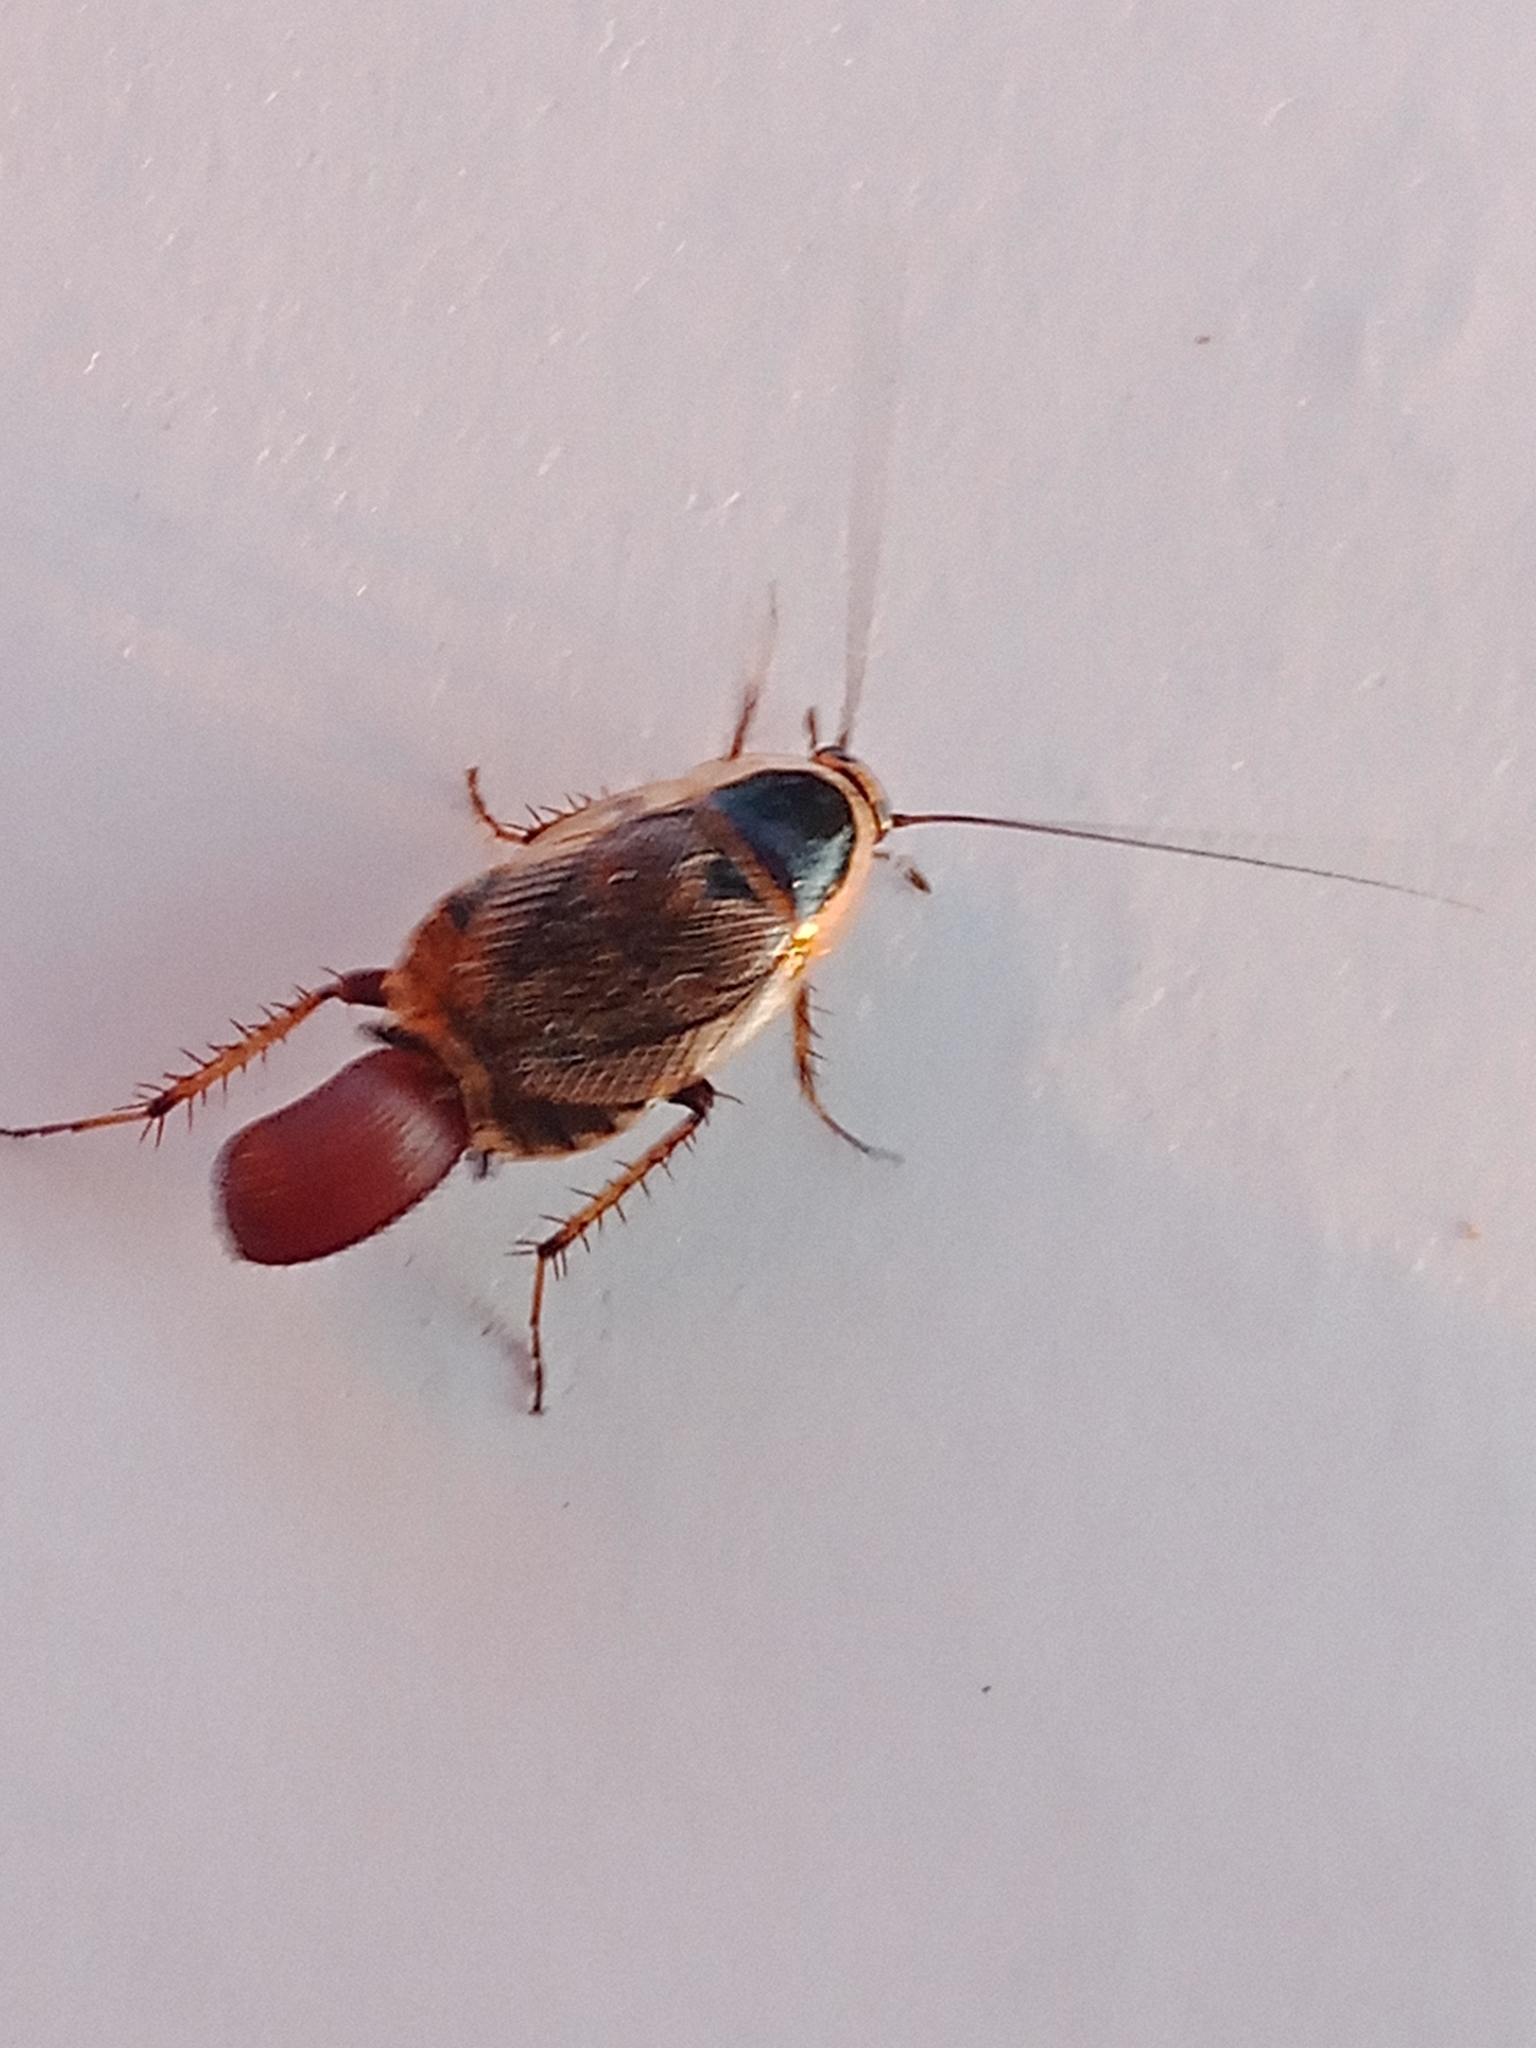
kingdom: Animalia
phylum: Arthropoda
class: Insecta
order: Blattodea
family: Ectobiidae
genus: Ectobius
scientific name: Ectobius sylvestris
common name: Forest cockroach
